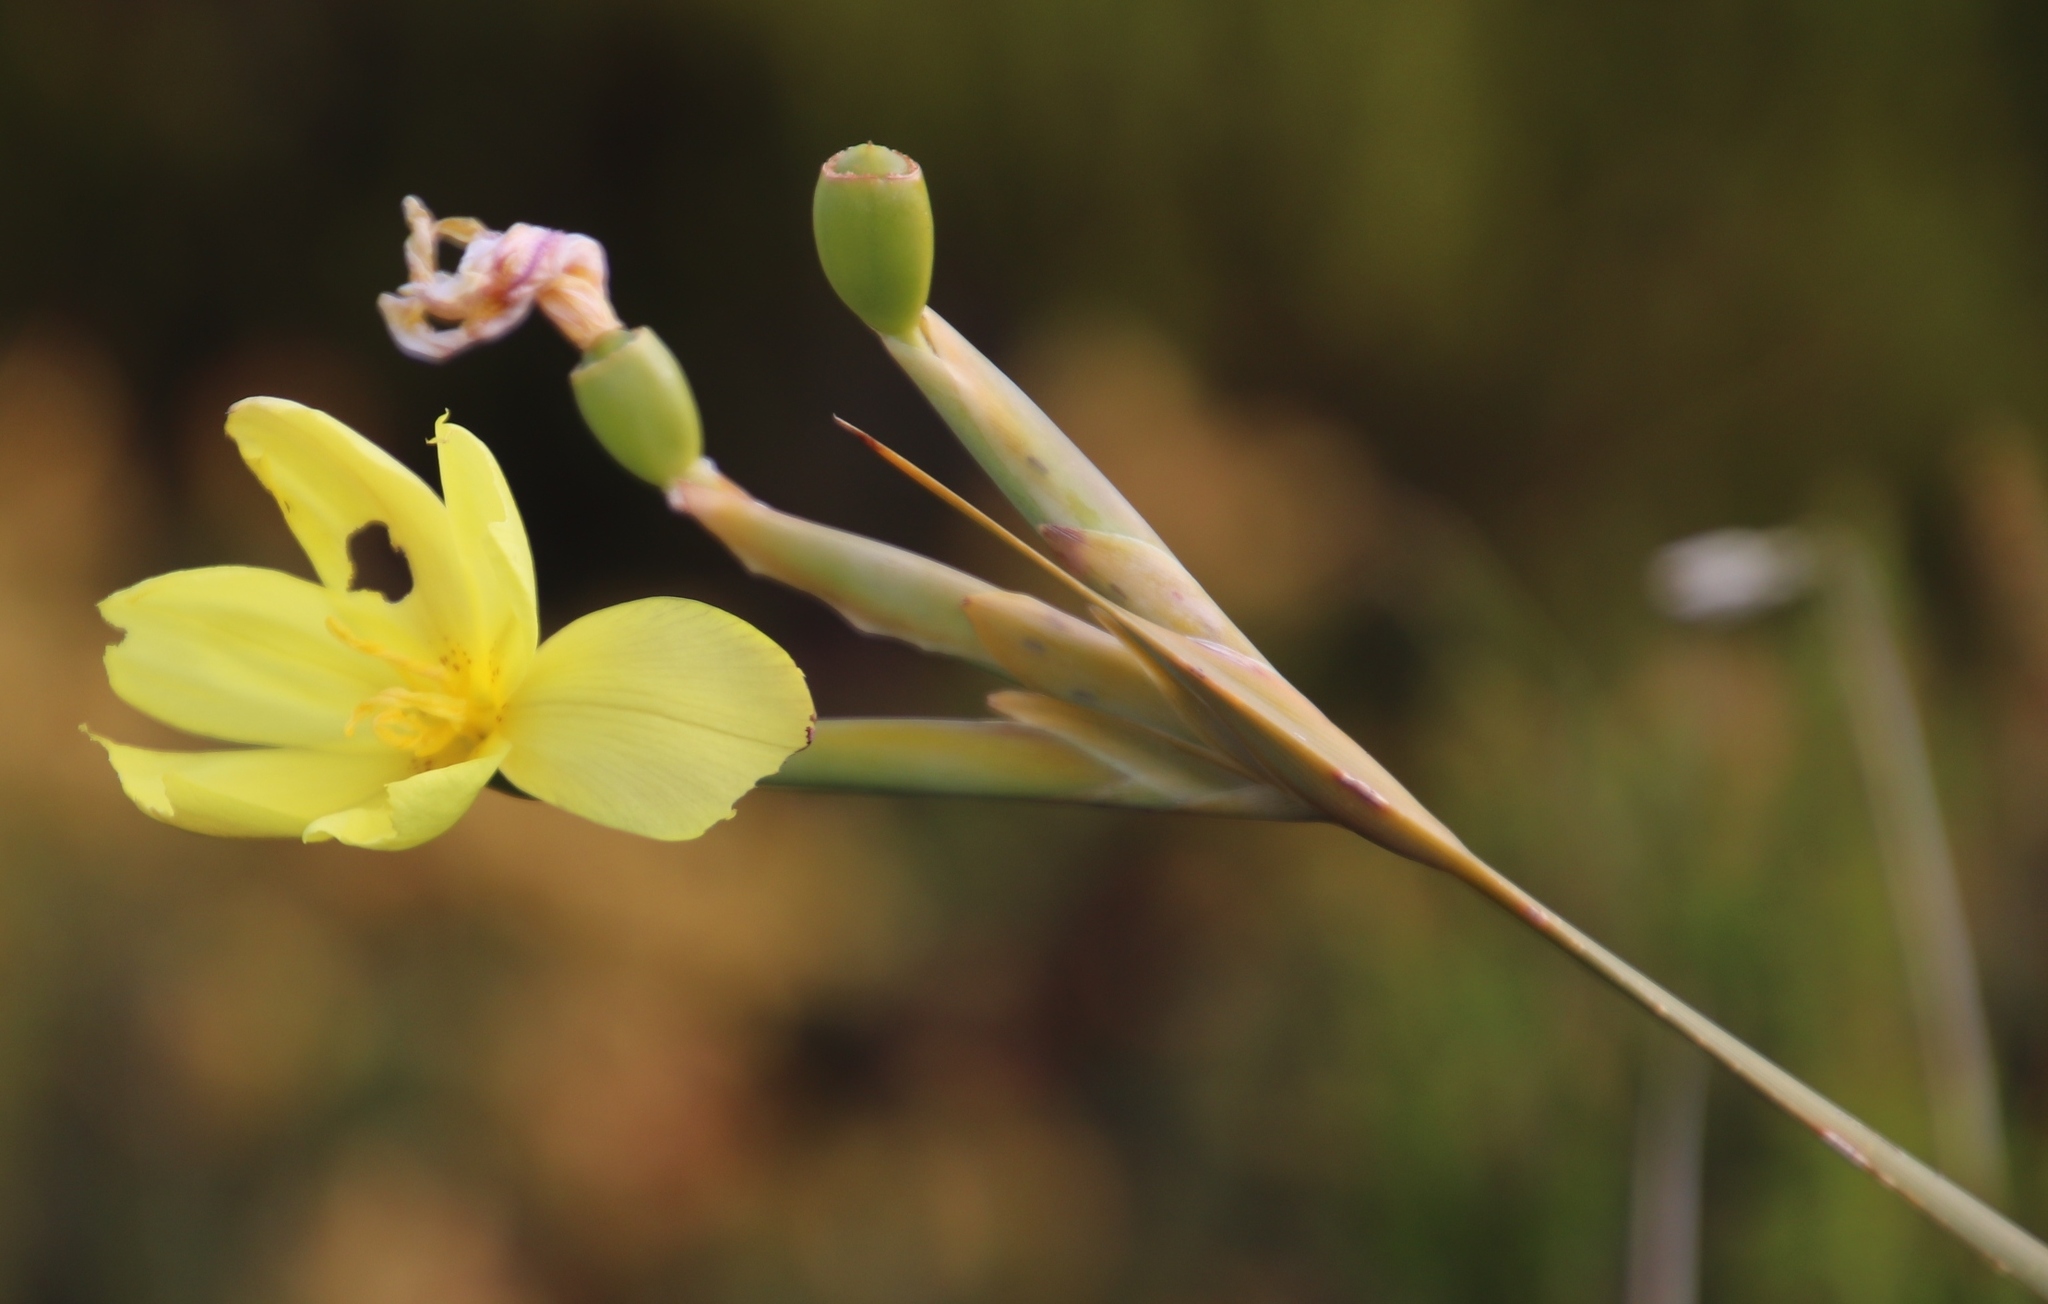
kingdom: Plantae
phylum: Tracheophyta
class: Liliopsida
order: Asparagales
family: Iridaceae
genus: Bobartia
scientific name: Bobartia gladiata
